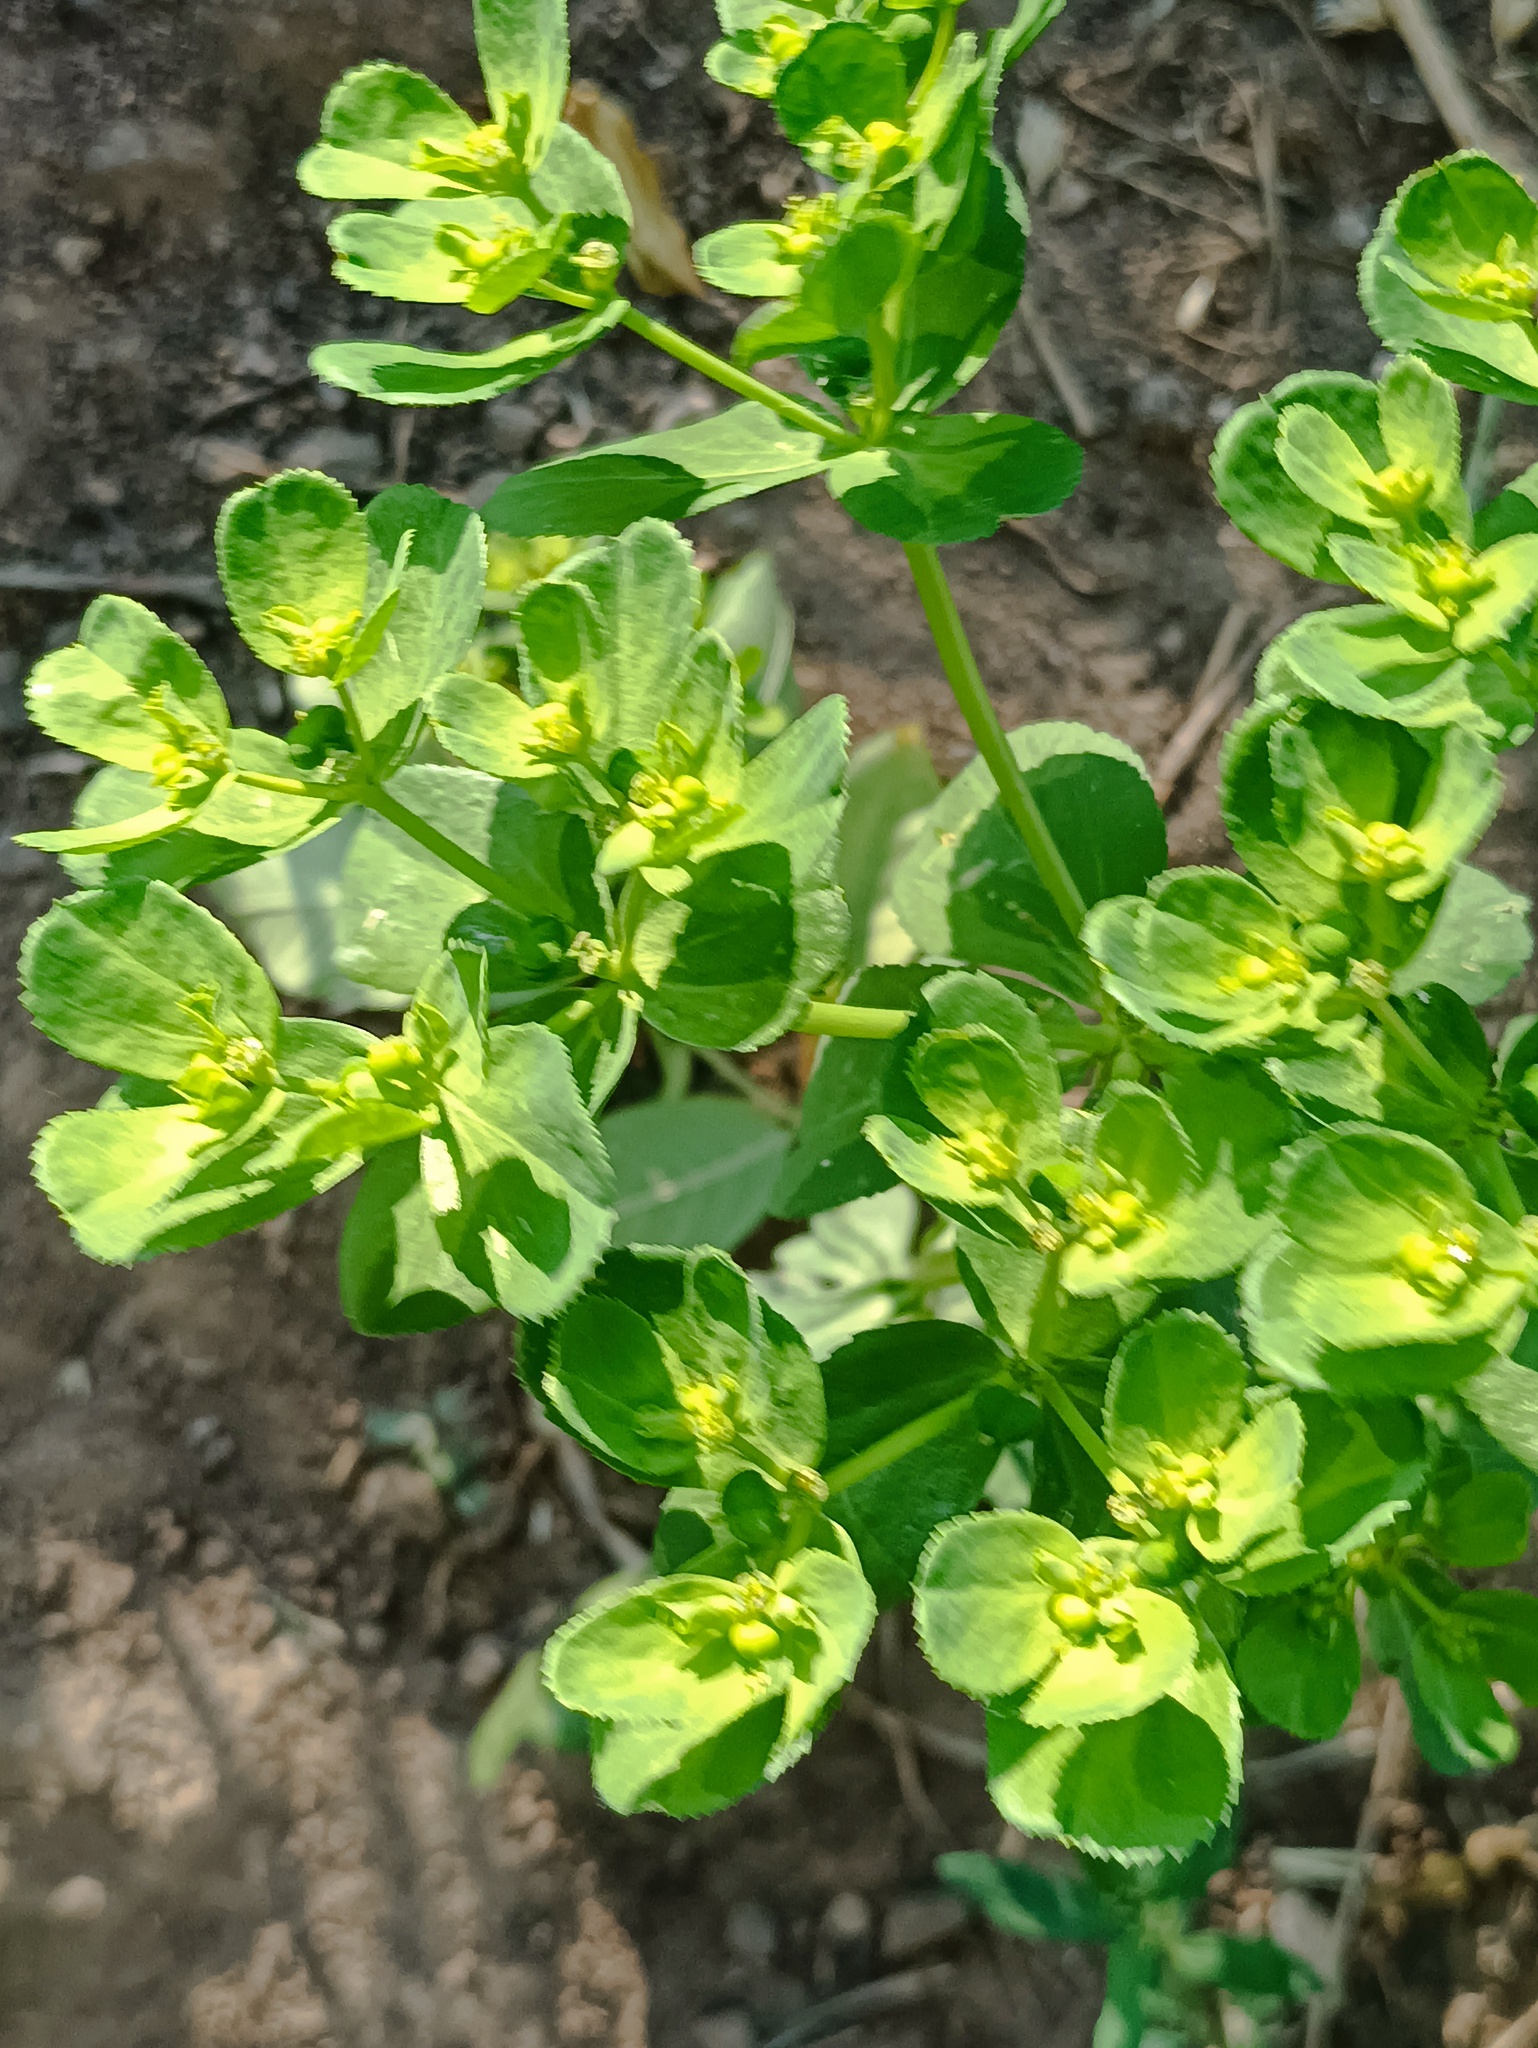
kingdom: Plantae
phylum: Tracheophyta
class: Magnoliopsida
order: Malpighiales
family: Euphorbiaceae
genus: Euphorbia
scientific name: Euphorbia helioscopia
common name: Sun spurge
